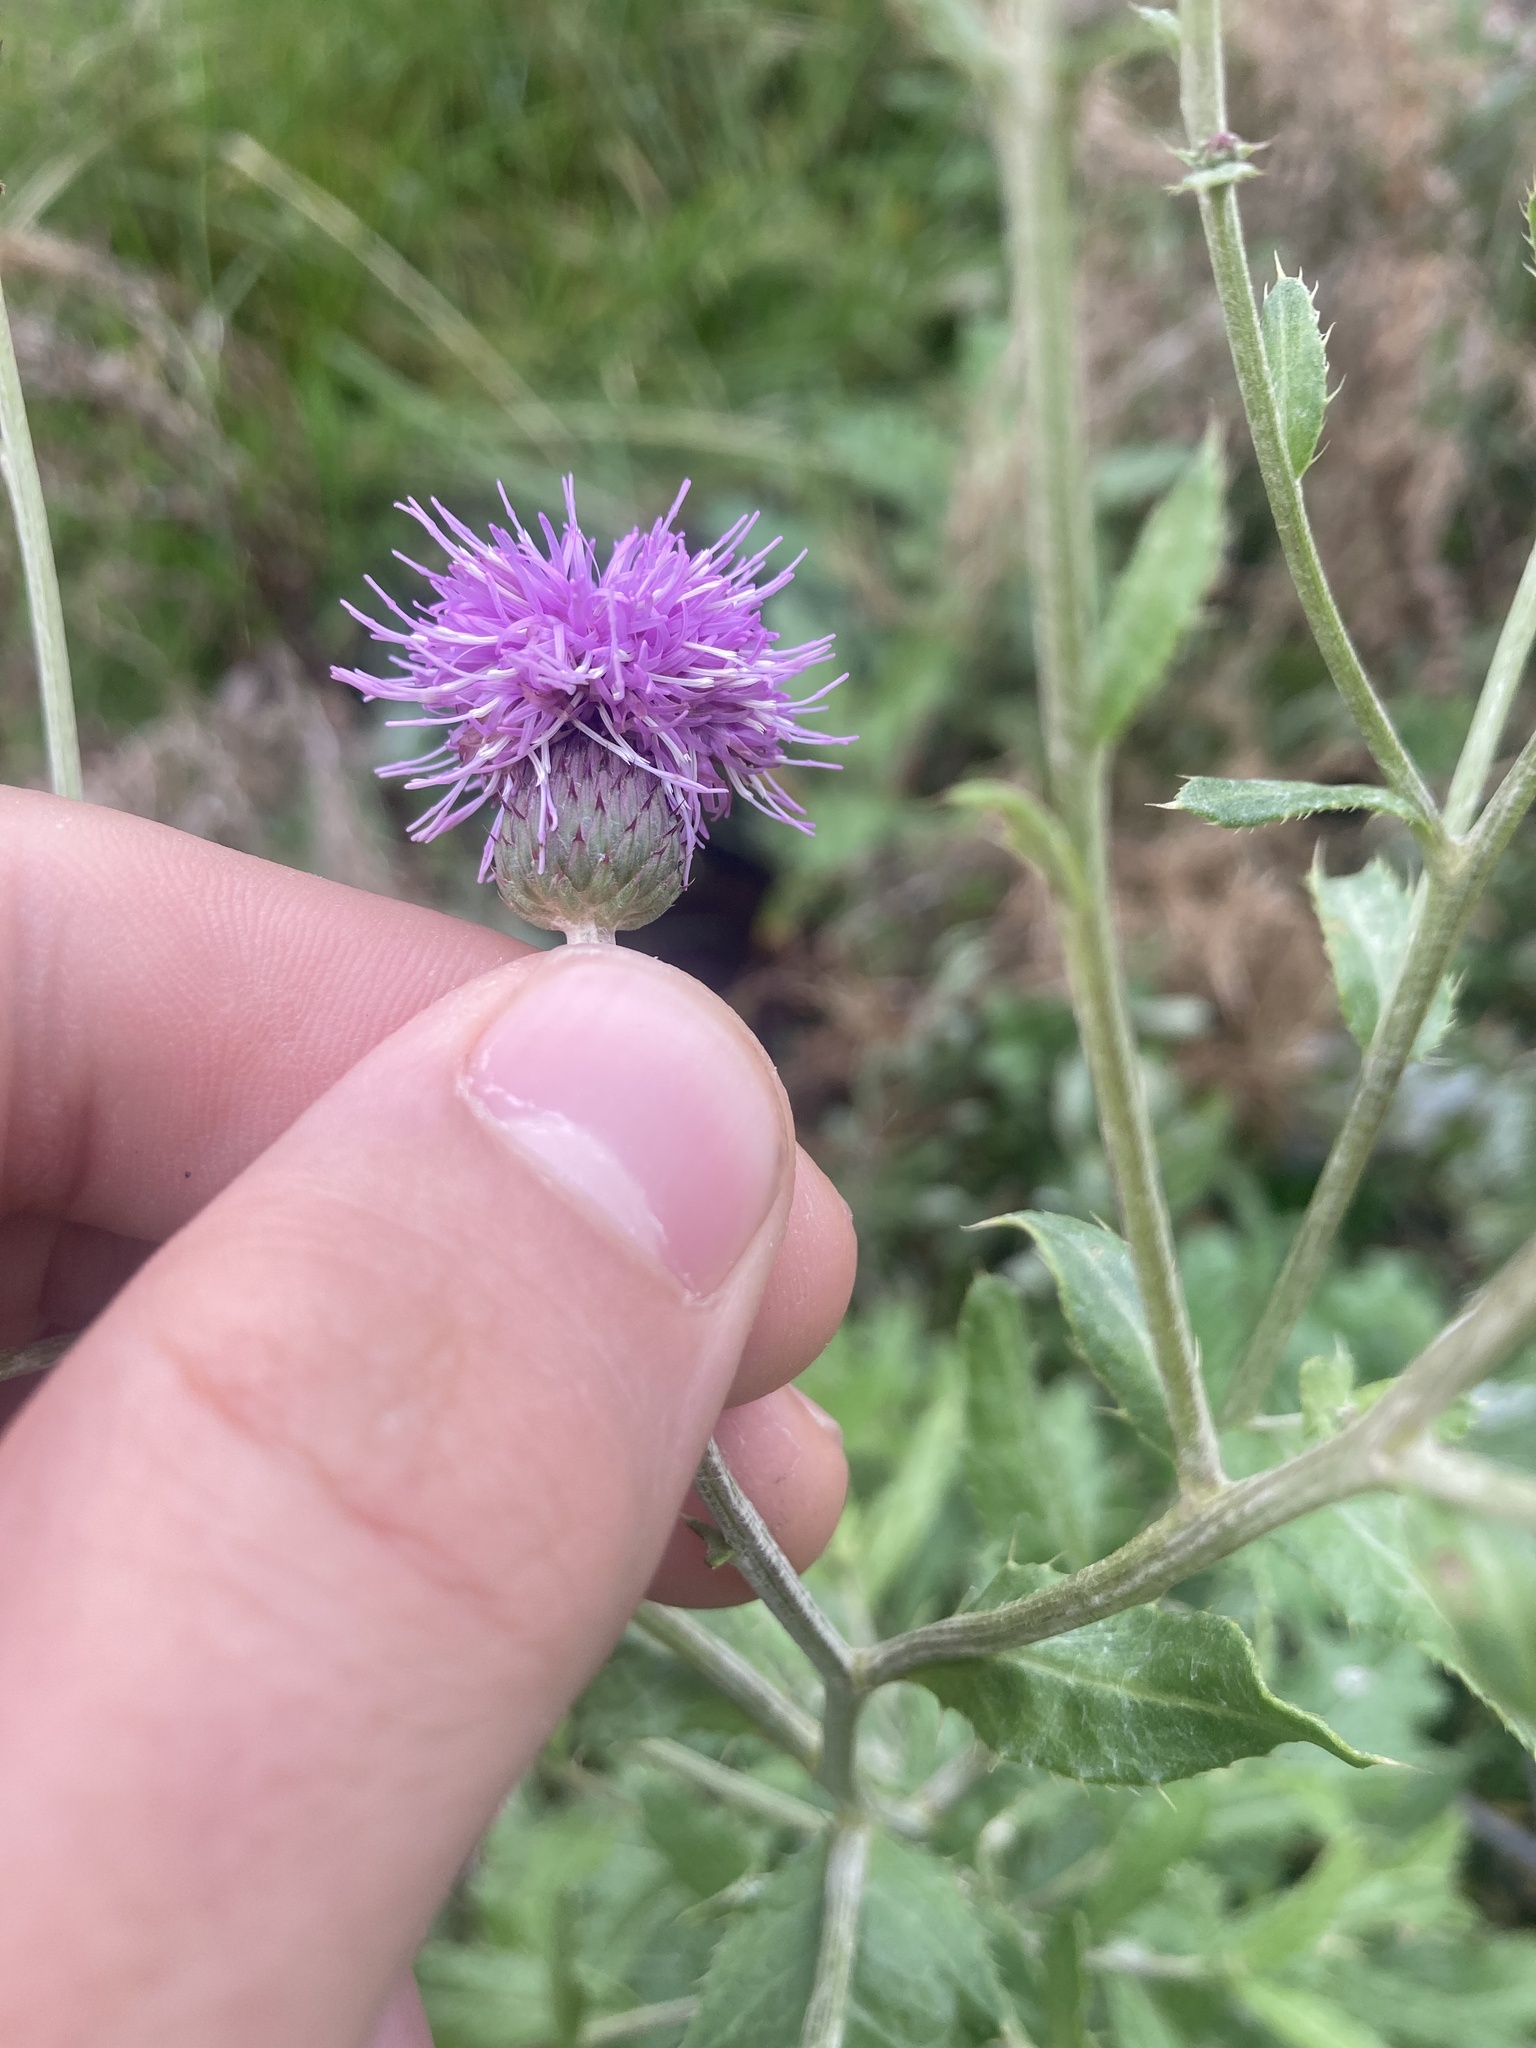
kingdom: Plantae
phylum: Tracheophyta
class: Magnoliopsida
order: Asterales
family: Asteraceae
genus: Cirsium
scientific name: Cirsium arvense
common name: Creeping thistle
